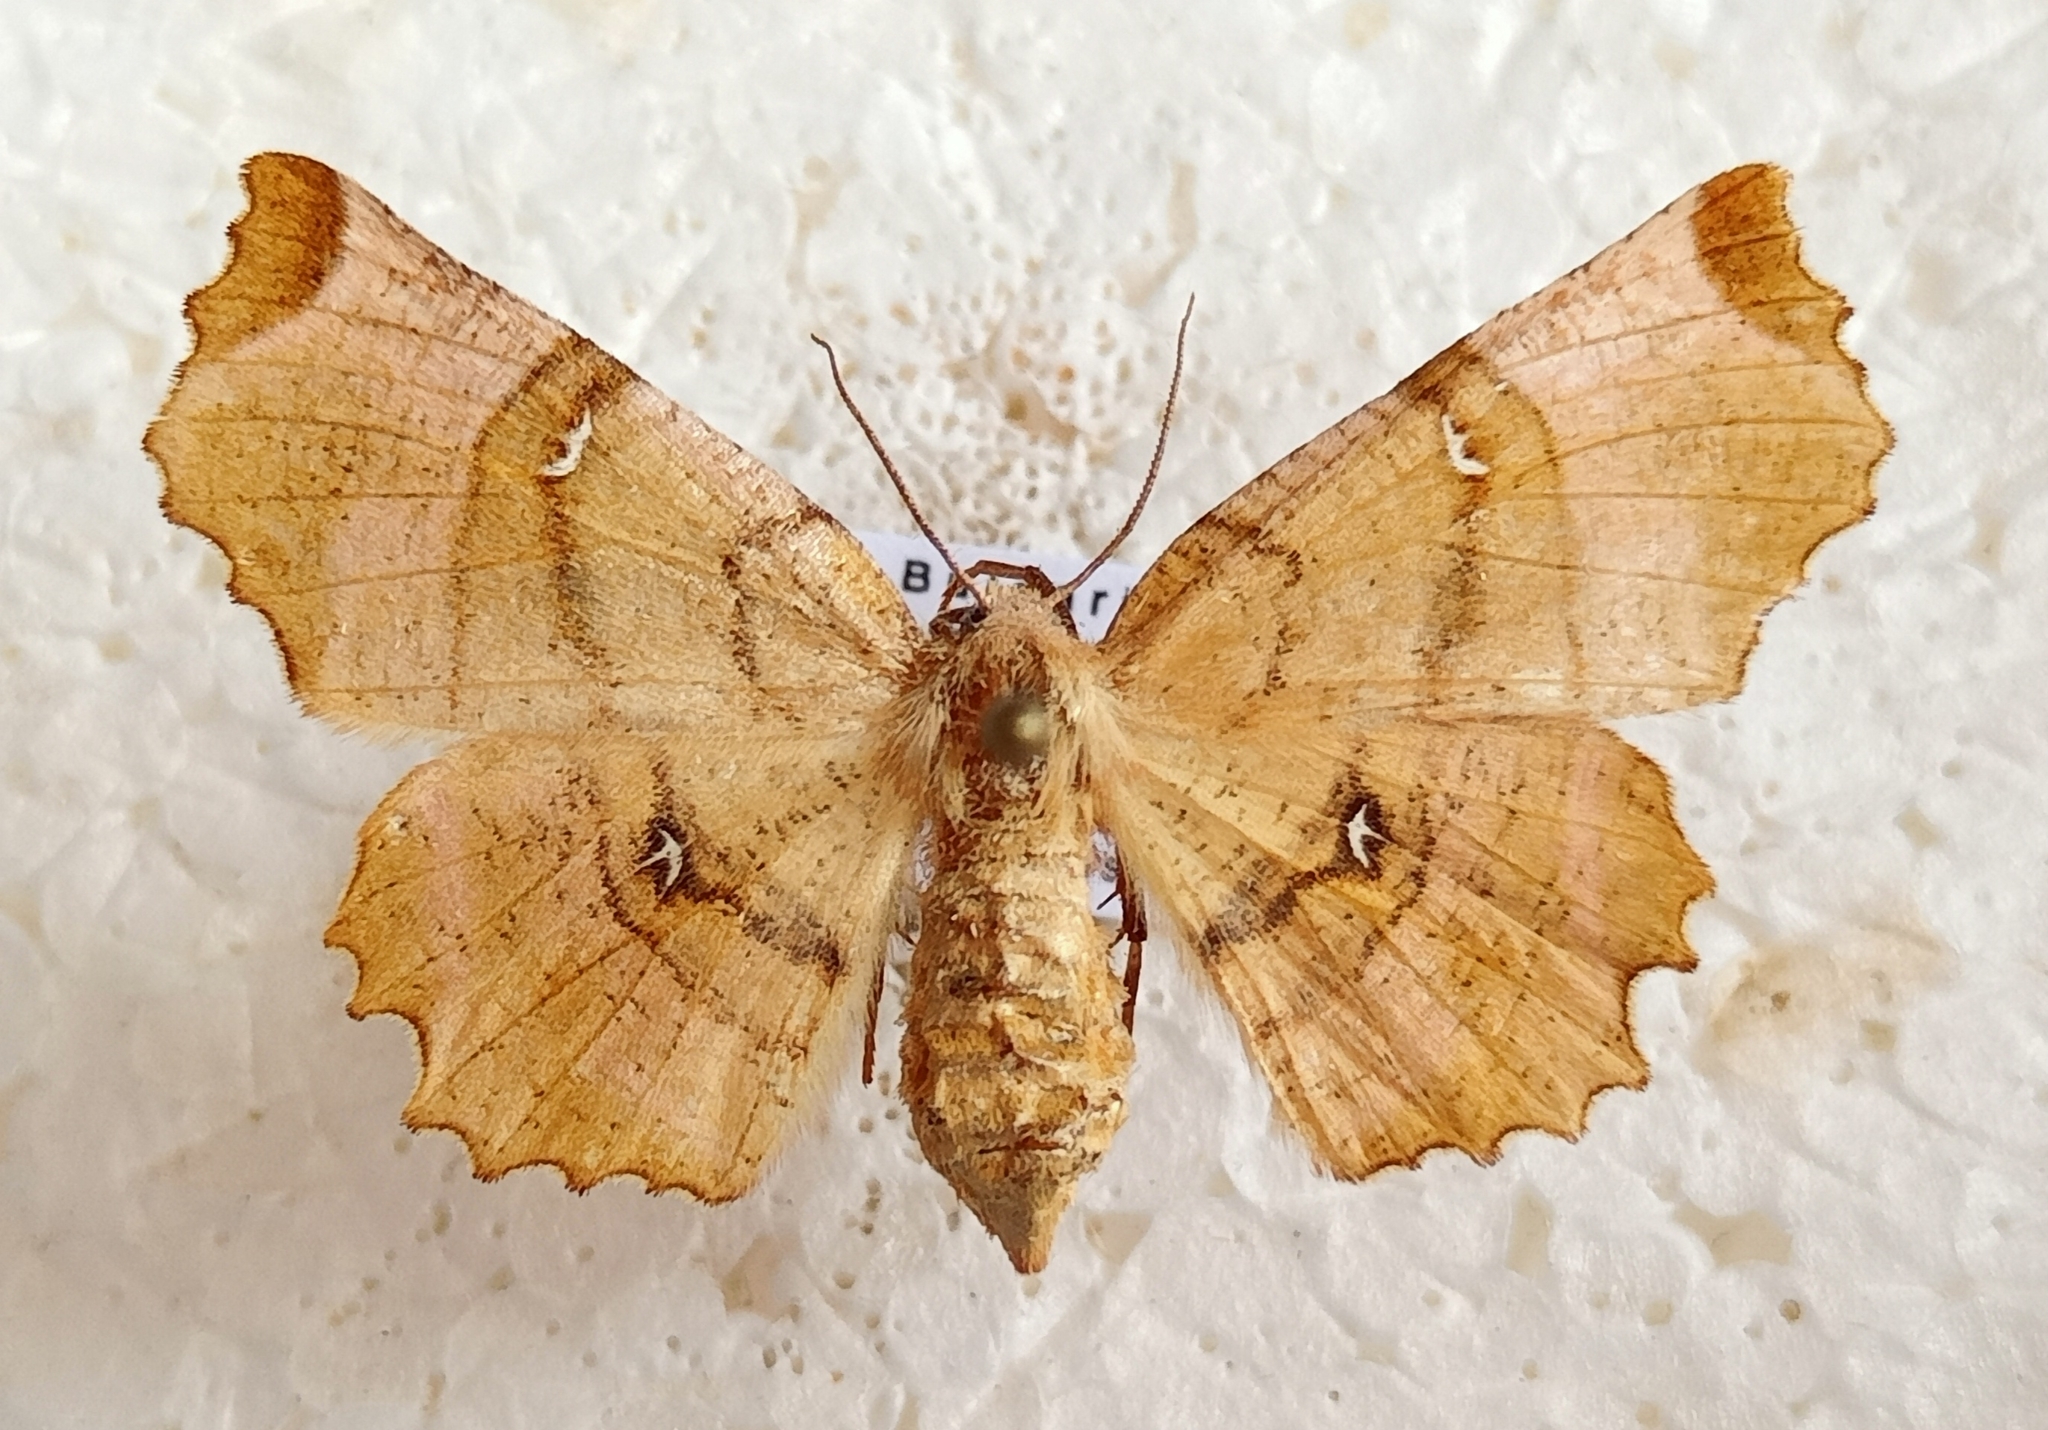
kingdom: Animalia
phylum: Arthropoda
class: Insecta
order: Lepidoptera
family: Geometridae
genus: Selenia
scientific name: Selenia lunularia
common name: Lunar thorn
